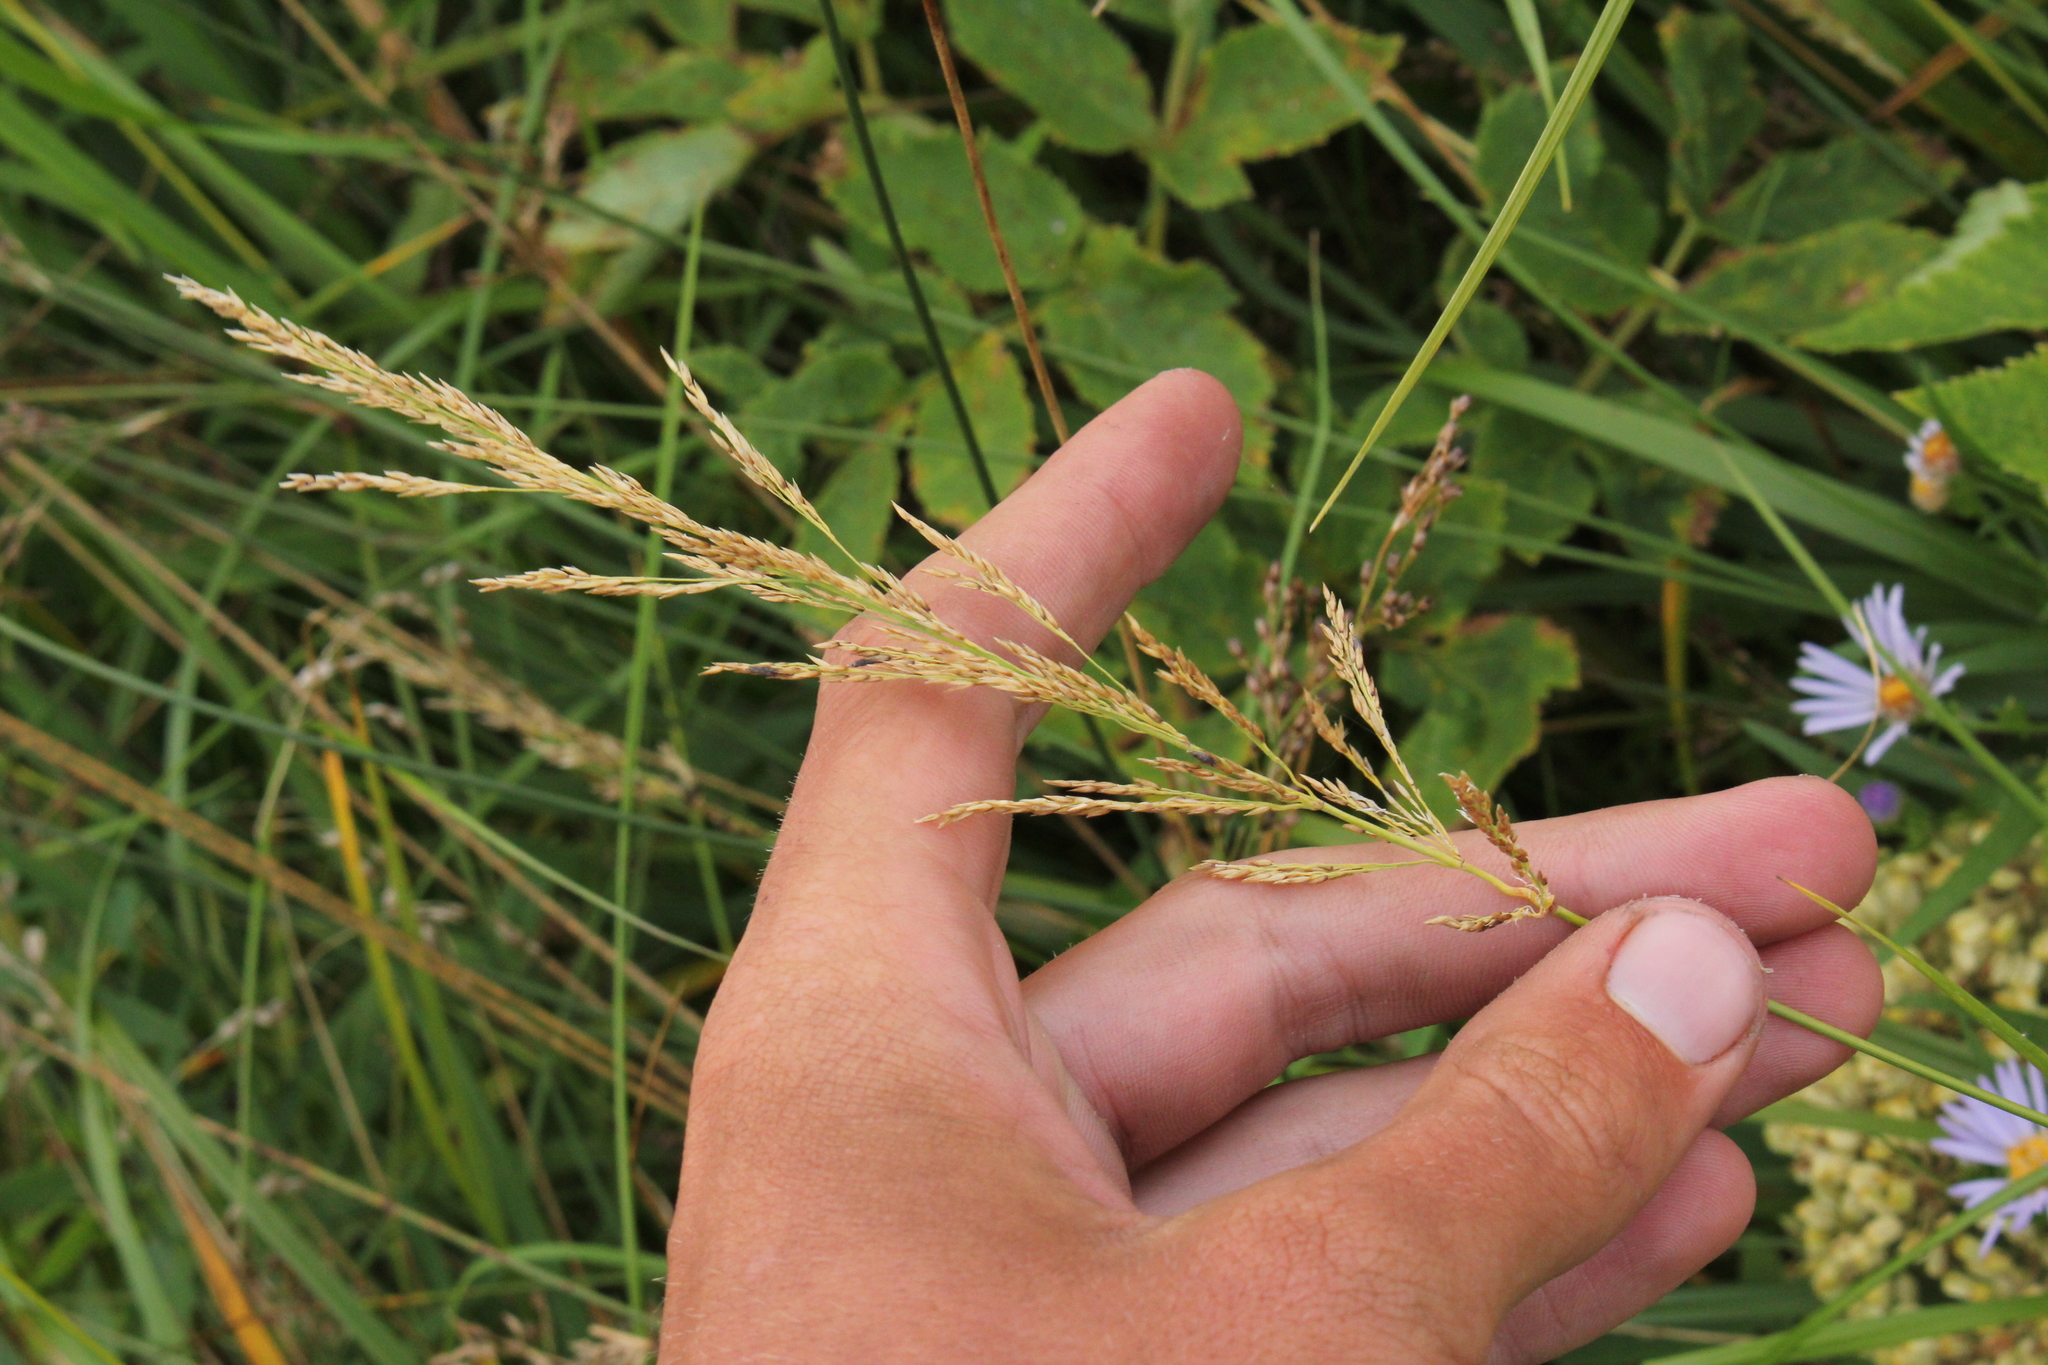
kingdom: Plantae
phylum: Tracheophyta
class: Liliopsida
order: Poales
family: Poaceae
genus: Calamagrostis
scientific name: Calamagrostis canadensis
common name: Canada bluejoint
